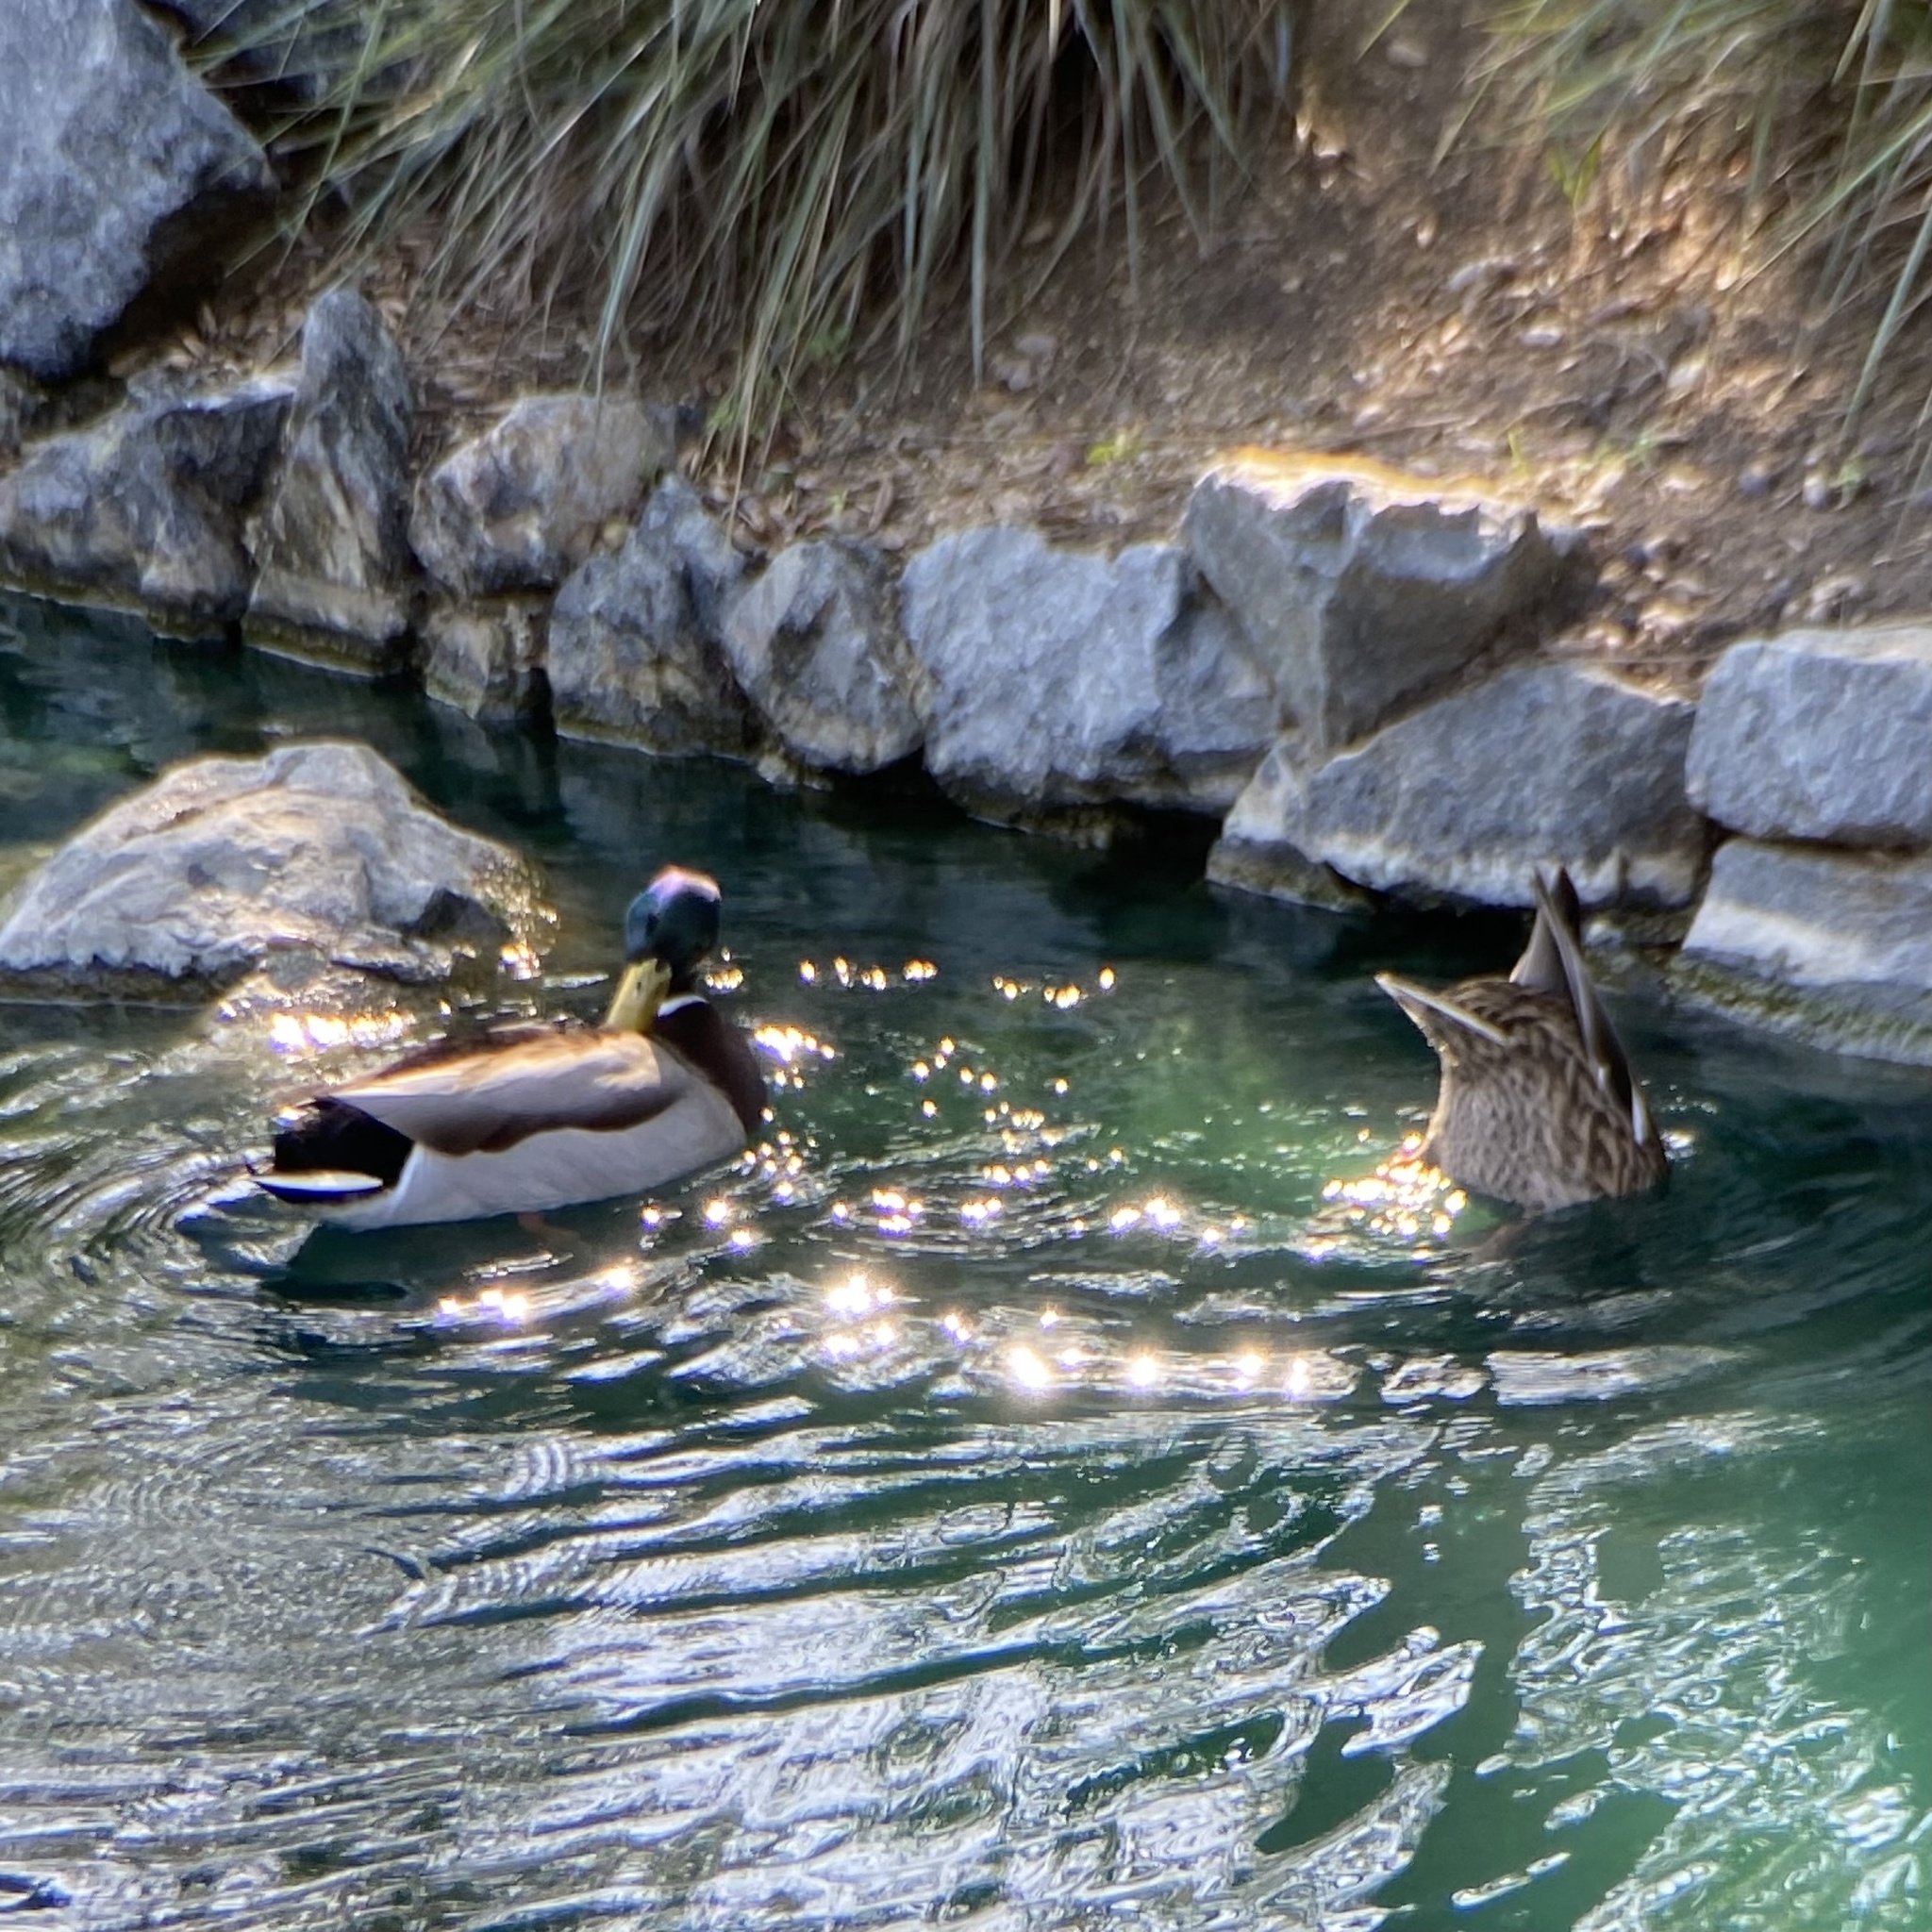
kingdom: Animalia
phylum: Chordata
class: Aves
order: Anseriformes
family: Anatidae
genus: Anas
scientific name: Anas platyrhynchos
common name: Mallard
